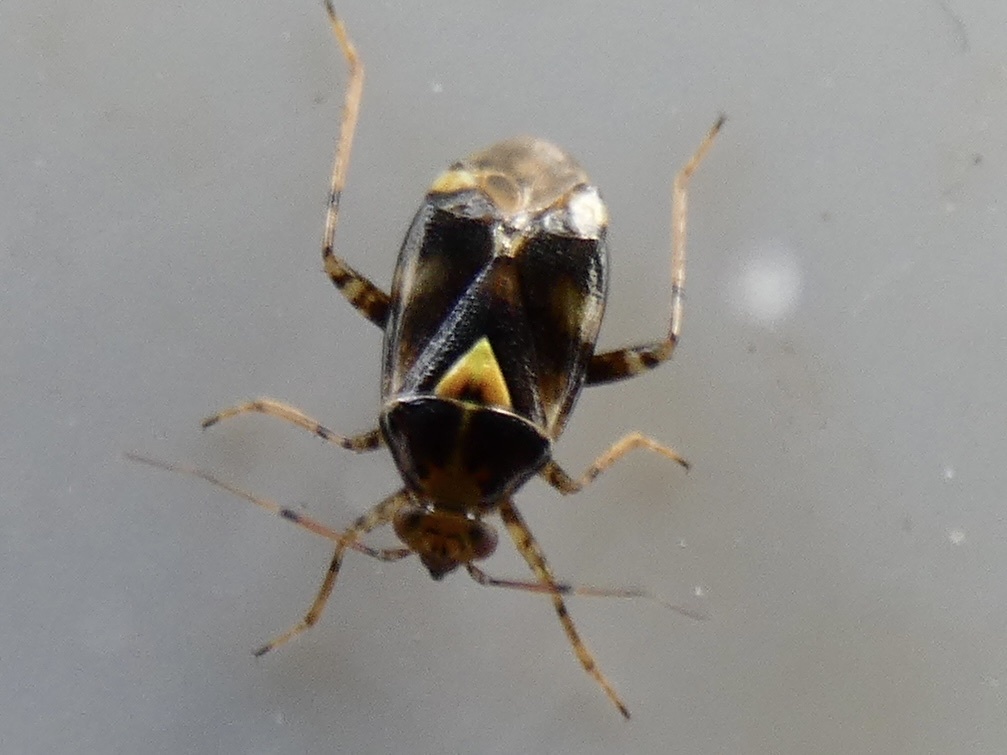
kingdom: Animalia
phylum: Arthropoda
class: Insecta
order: Hemiptera
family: Miridae
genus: Liocoris
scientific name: Liocoris tripustulatus
